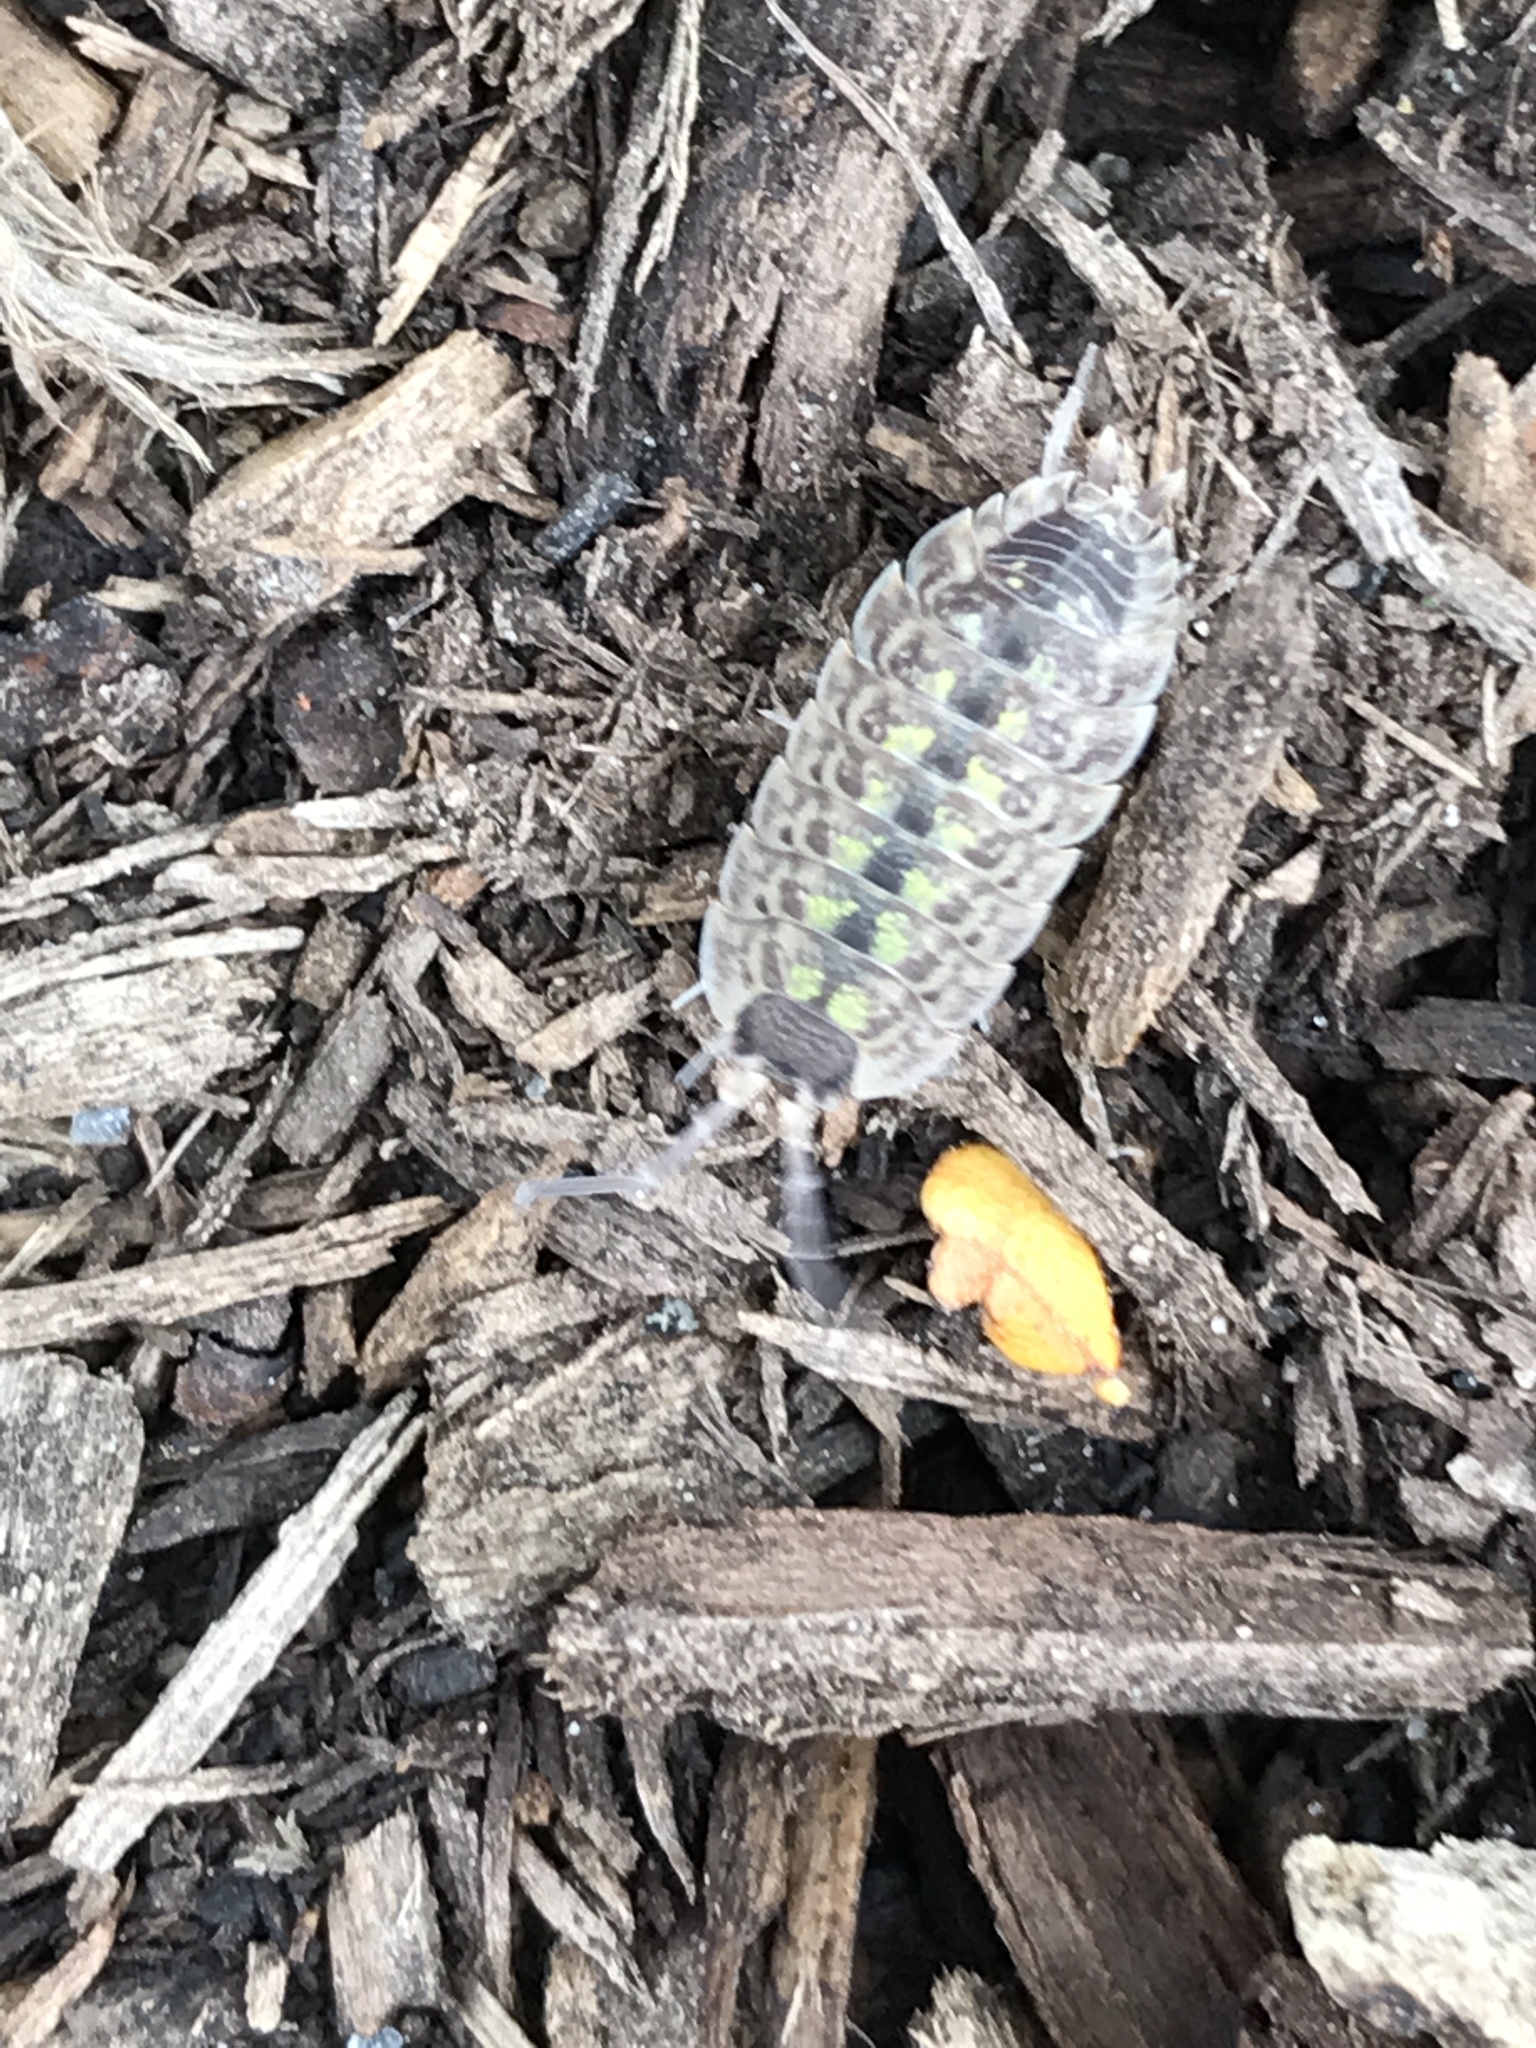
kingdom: Animalia
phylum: Arthropoda
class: Malacostraca
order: Isopoda
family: Porcellionidae
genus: Porcellio
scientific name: Porcellio spinicornis
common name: Painted woodlouse
